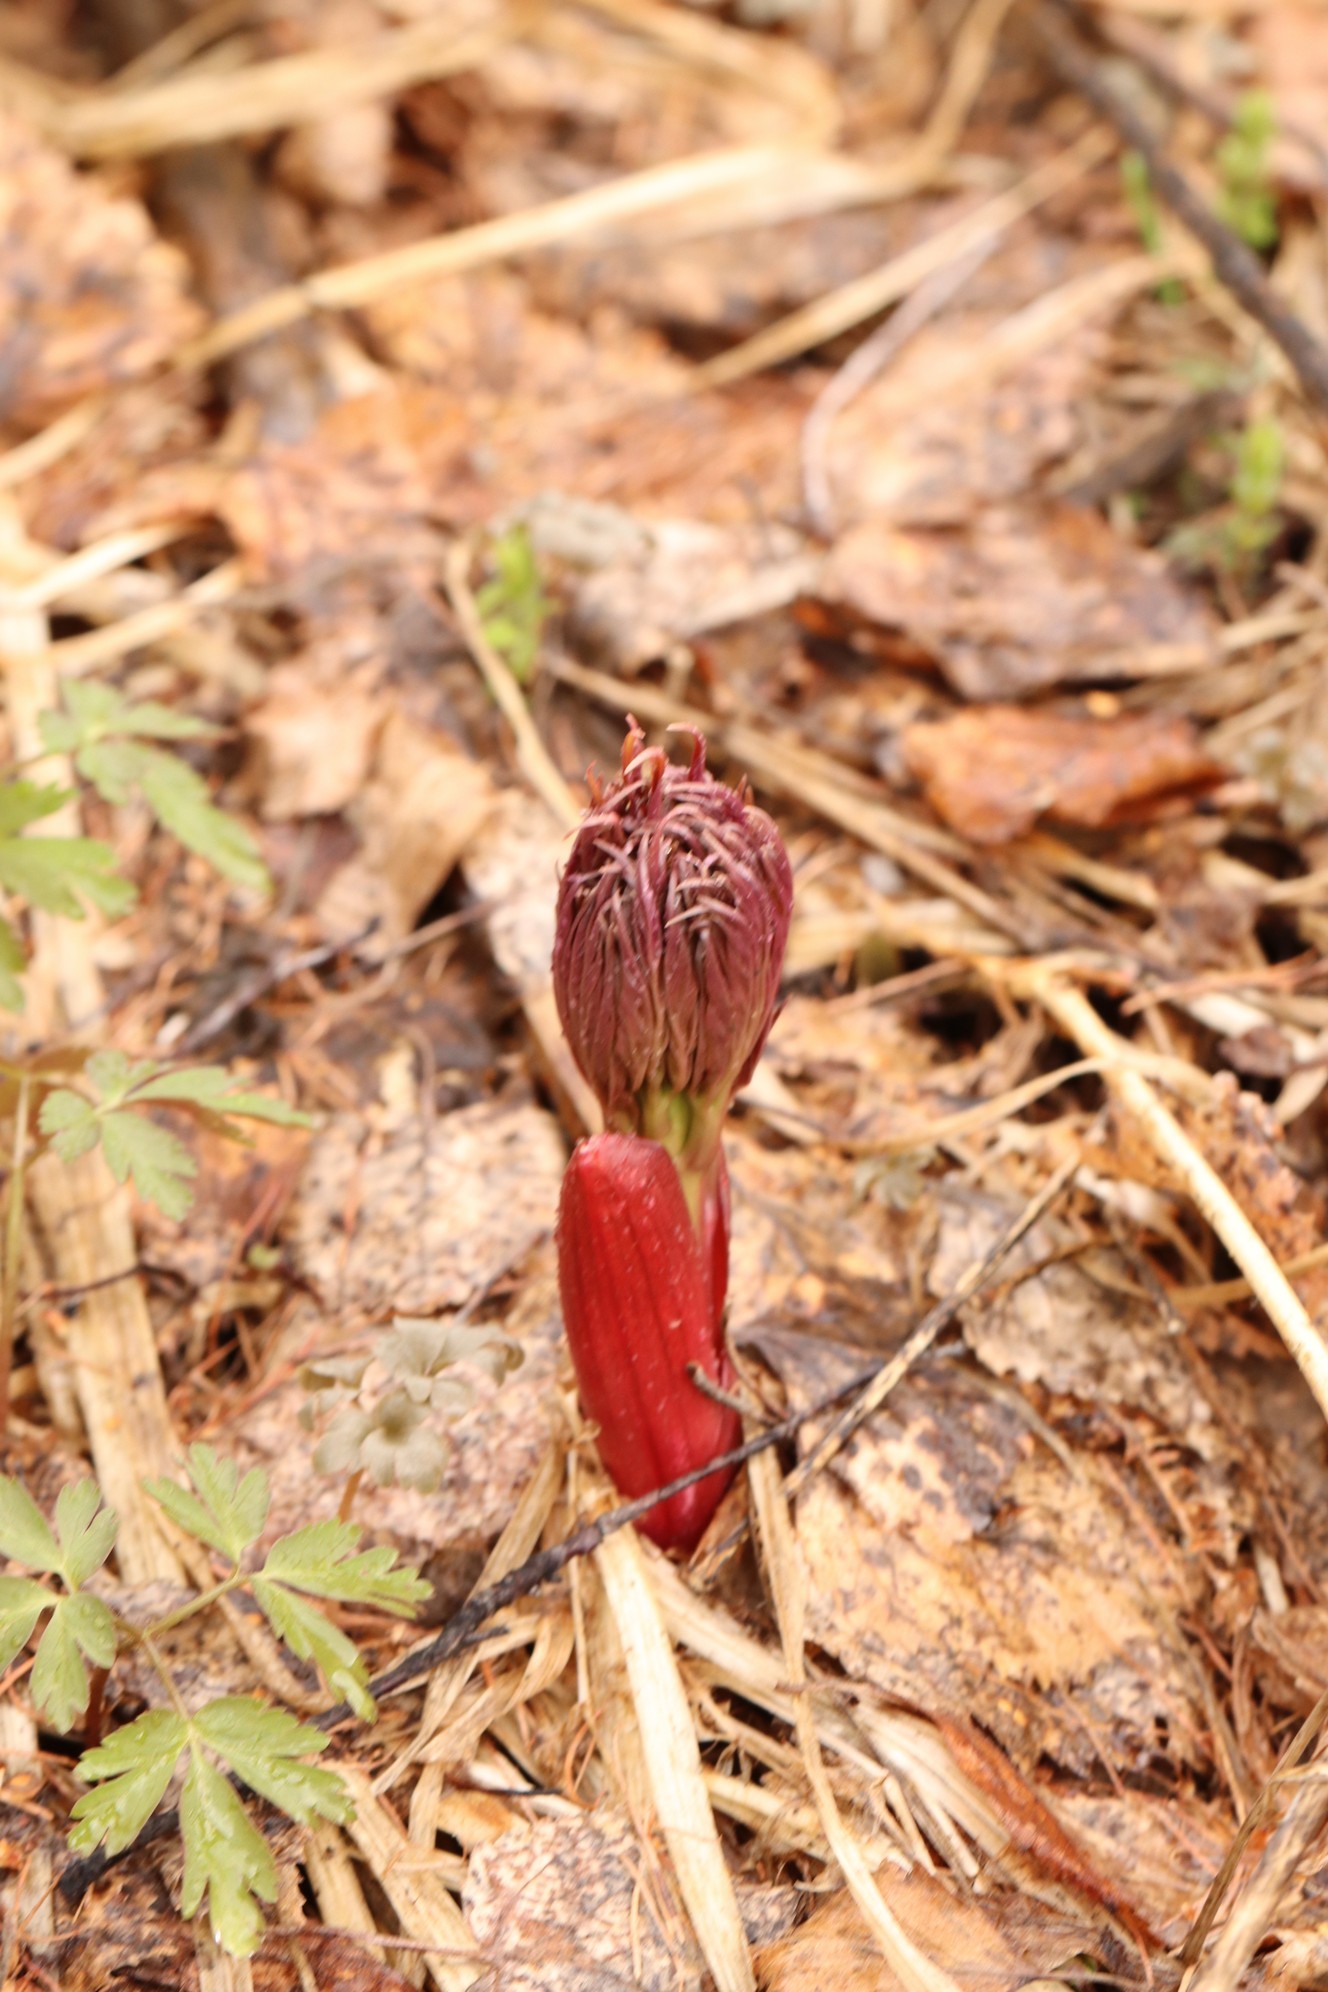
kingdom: Plantae
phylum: Tracheophyta
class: Magnoliopsida
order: Saxifragales
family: Paeoniaceae
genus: Paeonia
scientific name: Paeonia anomala
